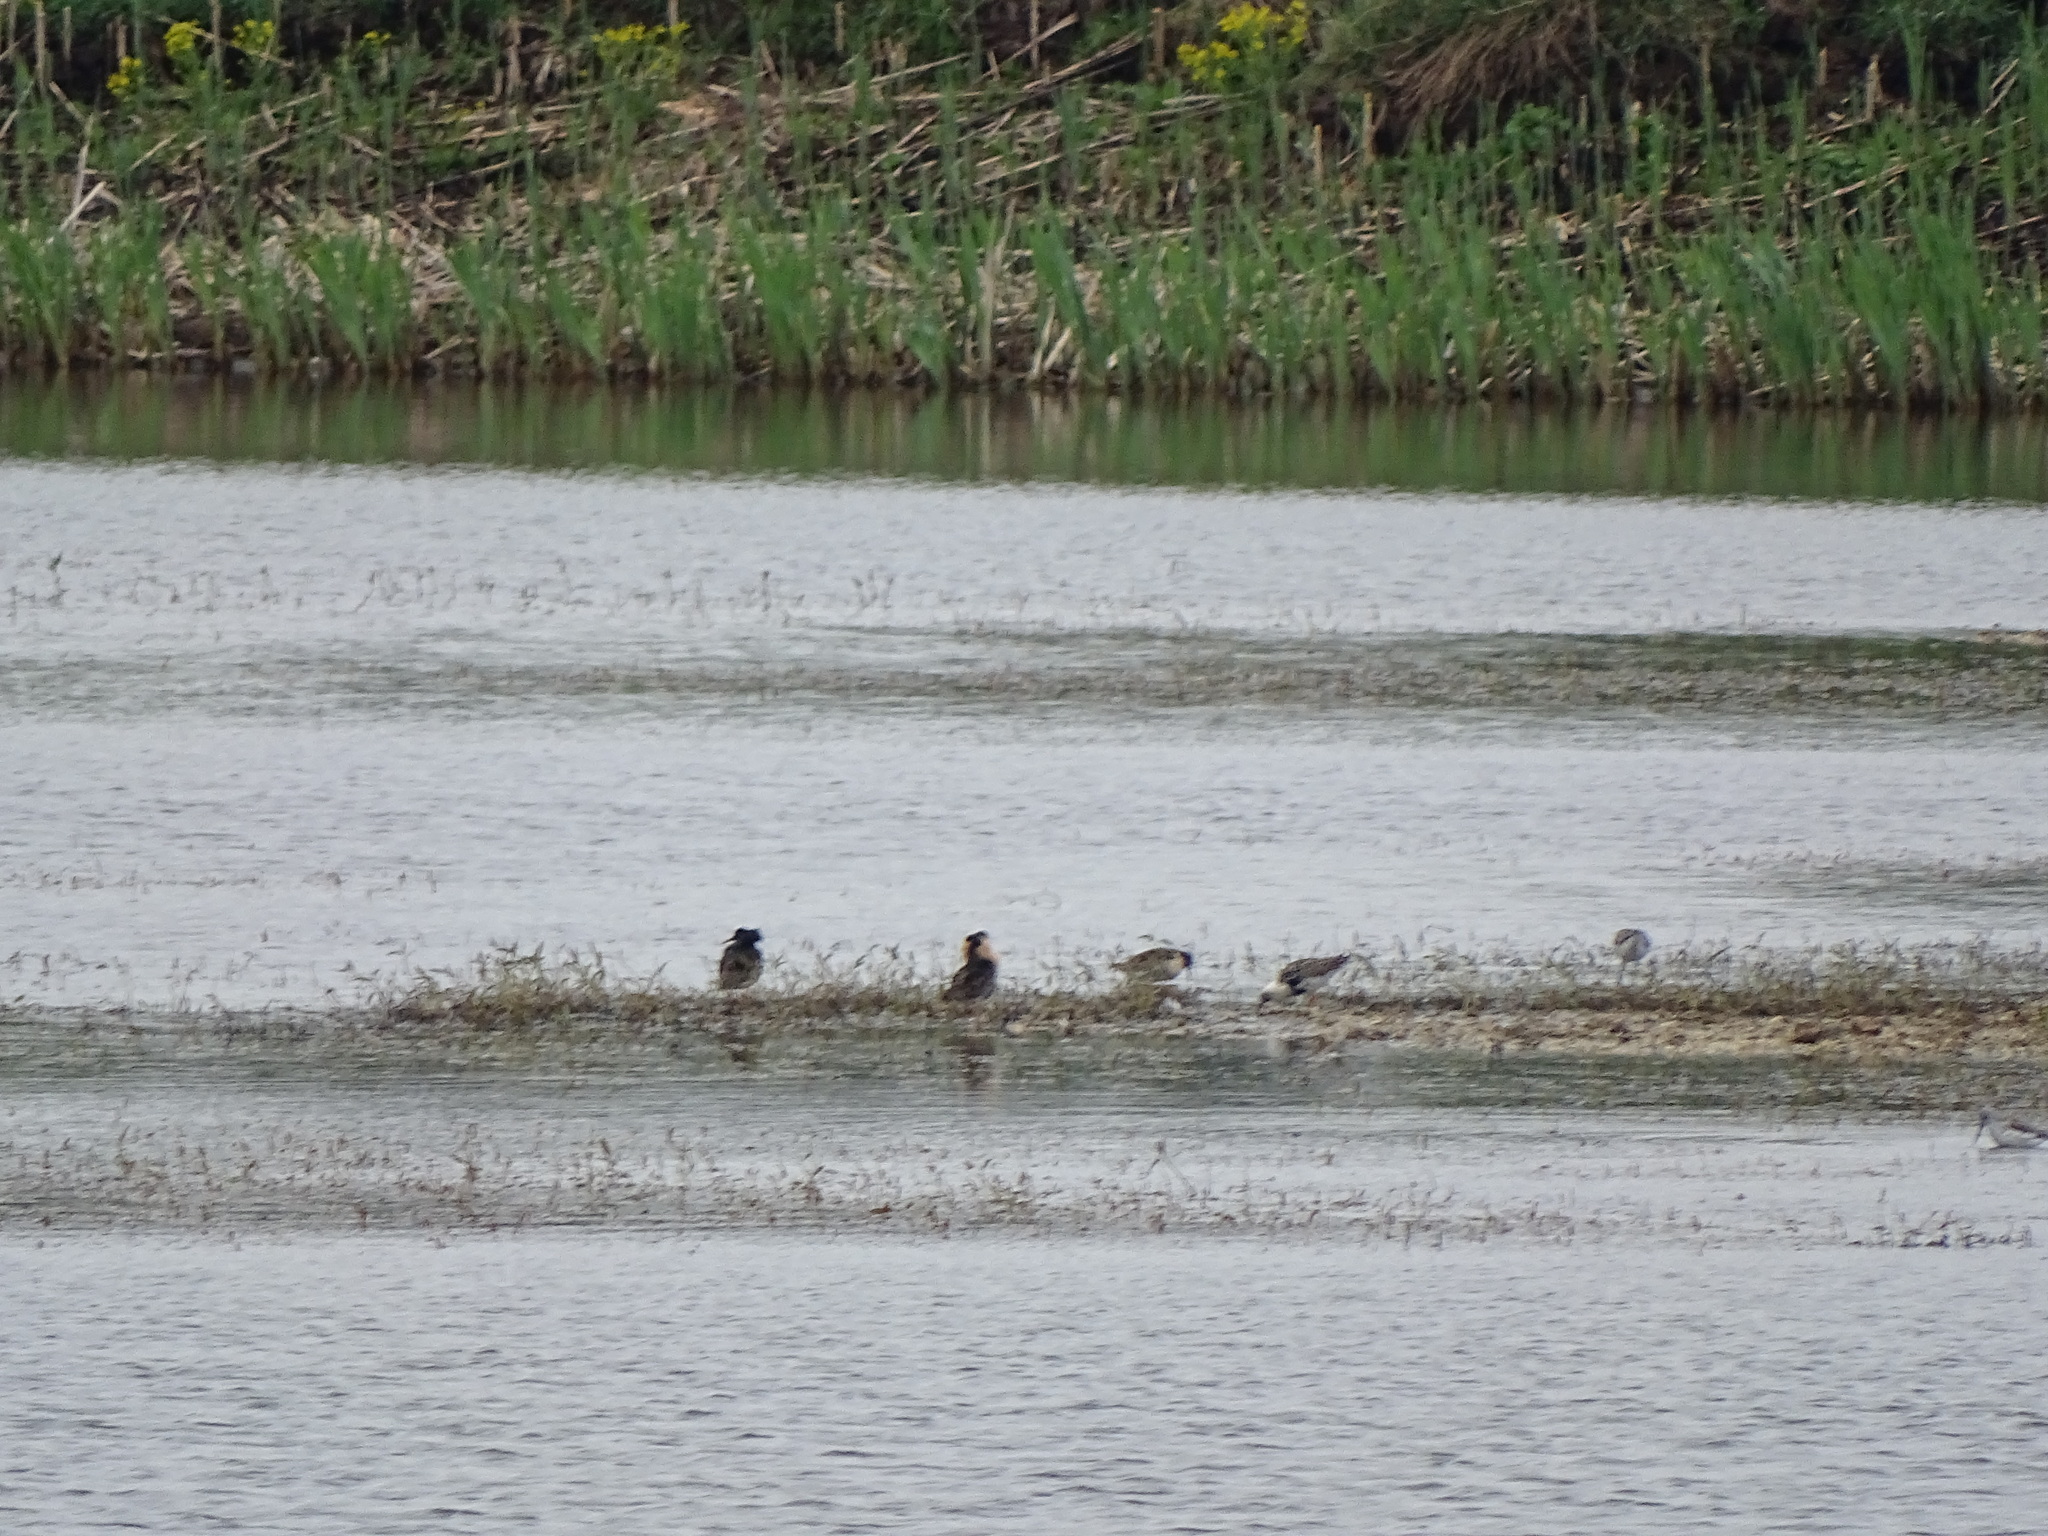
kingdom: Animalia
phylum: Chordata
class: Aves
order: Charadriiformes
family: Scolopacidae
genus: Calidris
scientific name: Calidris pugnax
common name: Ruff
